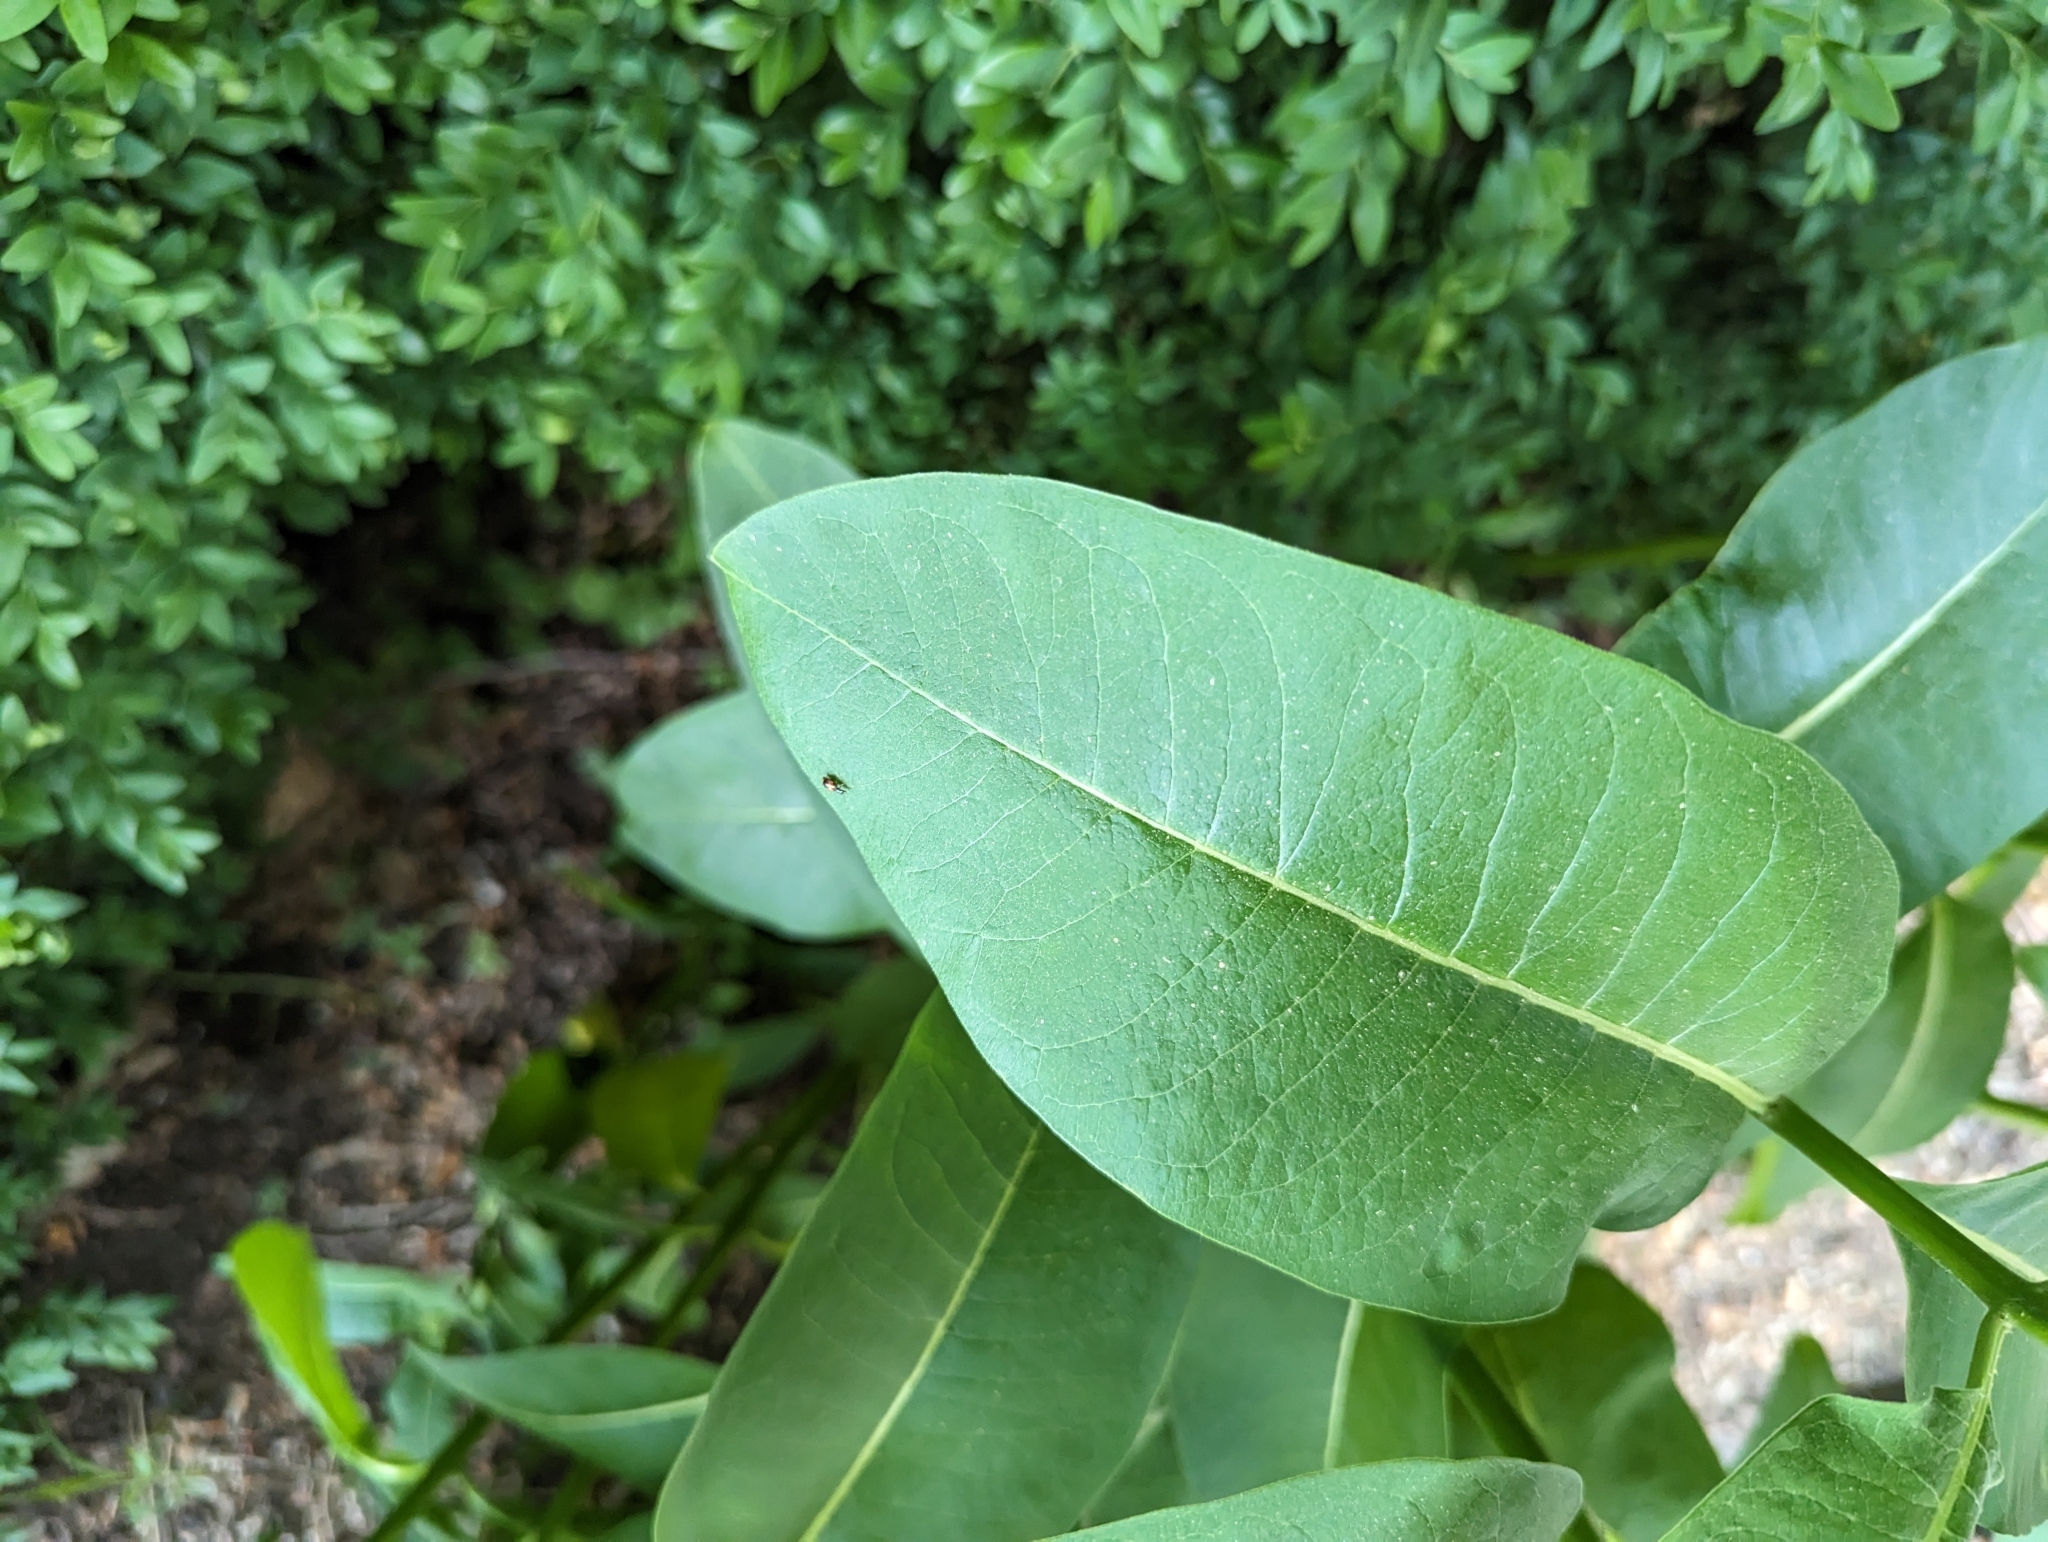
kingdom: Animalia
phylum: Arthropoda
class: Insecta
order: Coleoptera
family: Melyridae
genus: Anthocomus
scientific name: Anthocomus equestris
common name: Black-banded soft-winged flower beetle
